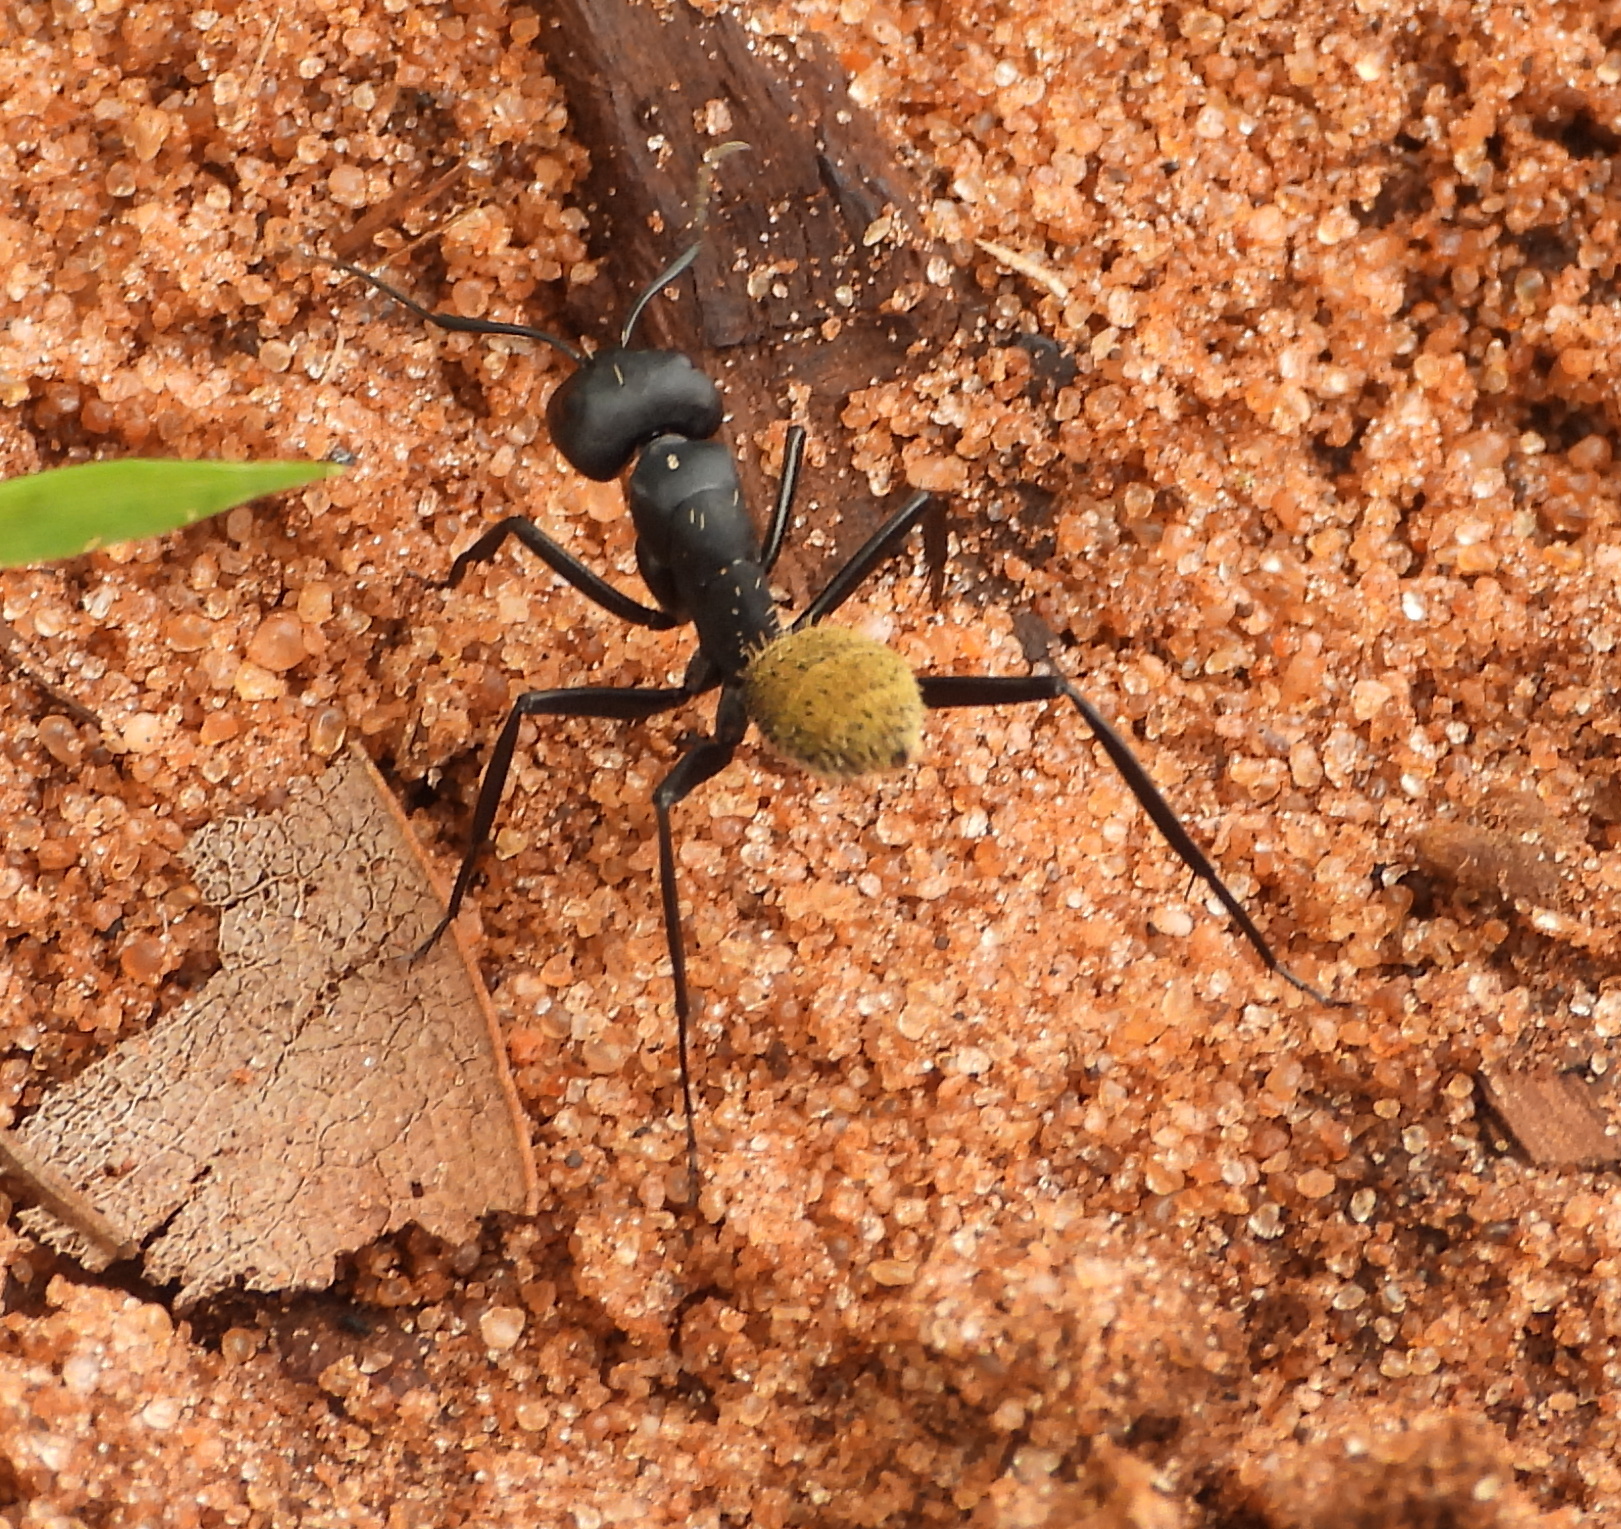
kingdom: Animalia
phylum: Arthropoda
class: Insecta
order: Hymenoptera
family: Formicidae
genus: Camponotus
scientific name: Camponotus fulvopilosus
